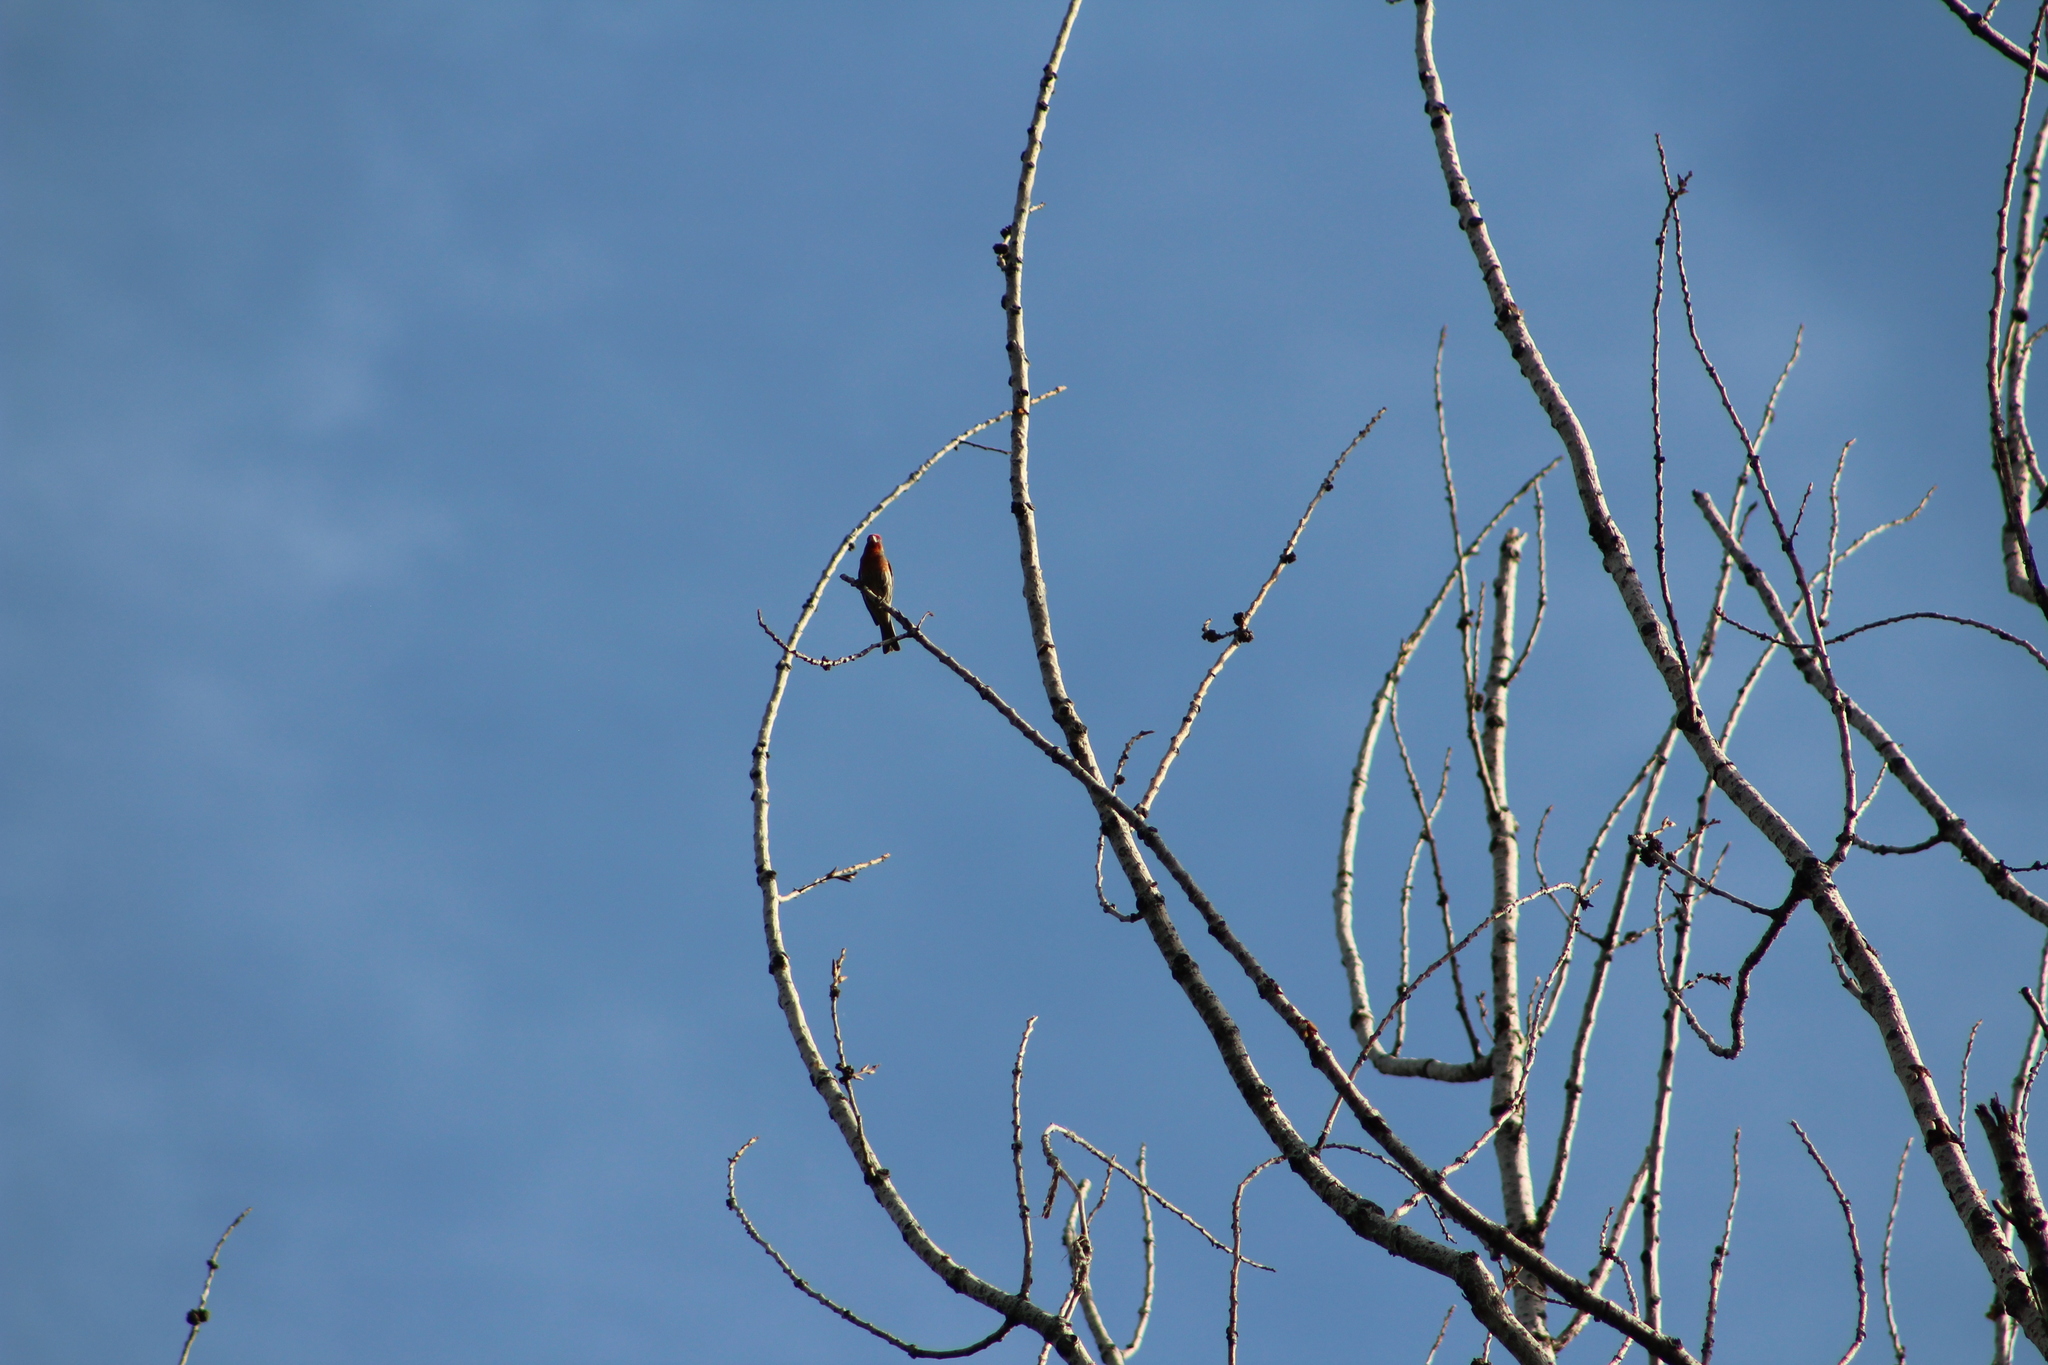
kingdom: Animalia
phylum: Chordata
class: Aves
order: Passeriformes
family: Fringillidae
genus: Haemorhous
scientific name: Haemorhous mexicanus
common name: House finch
